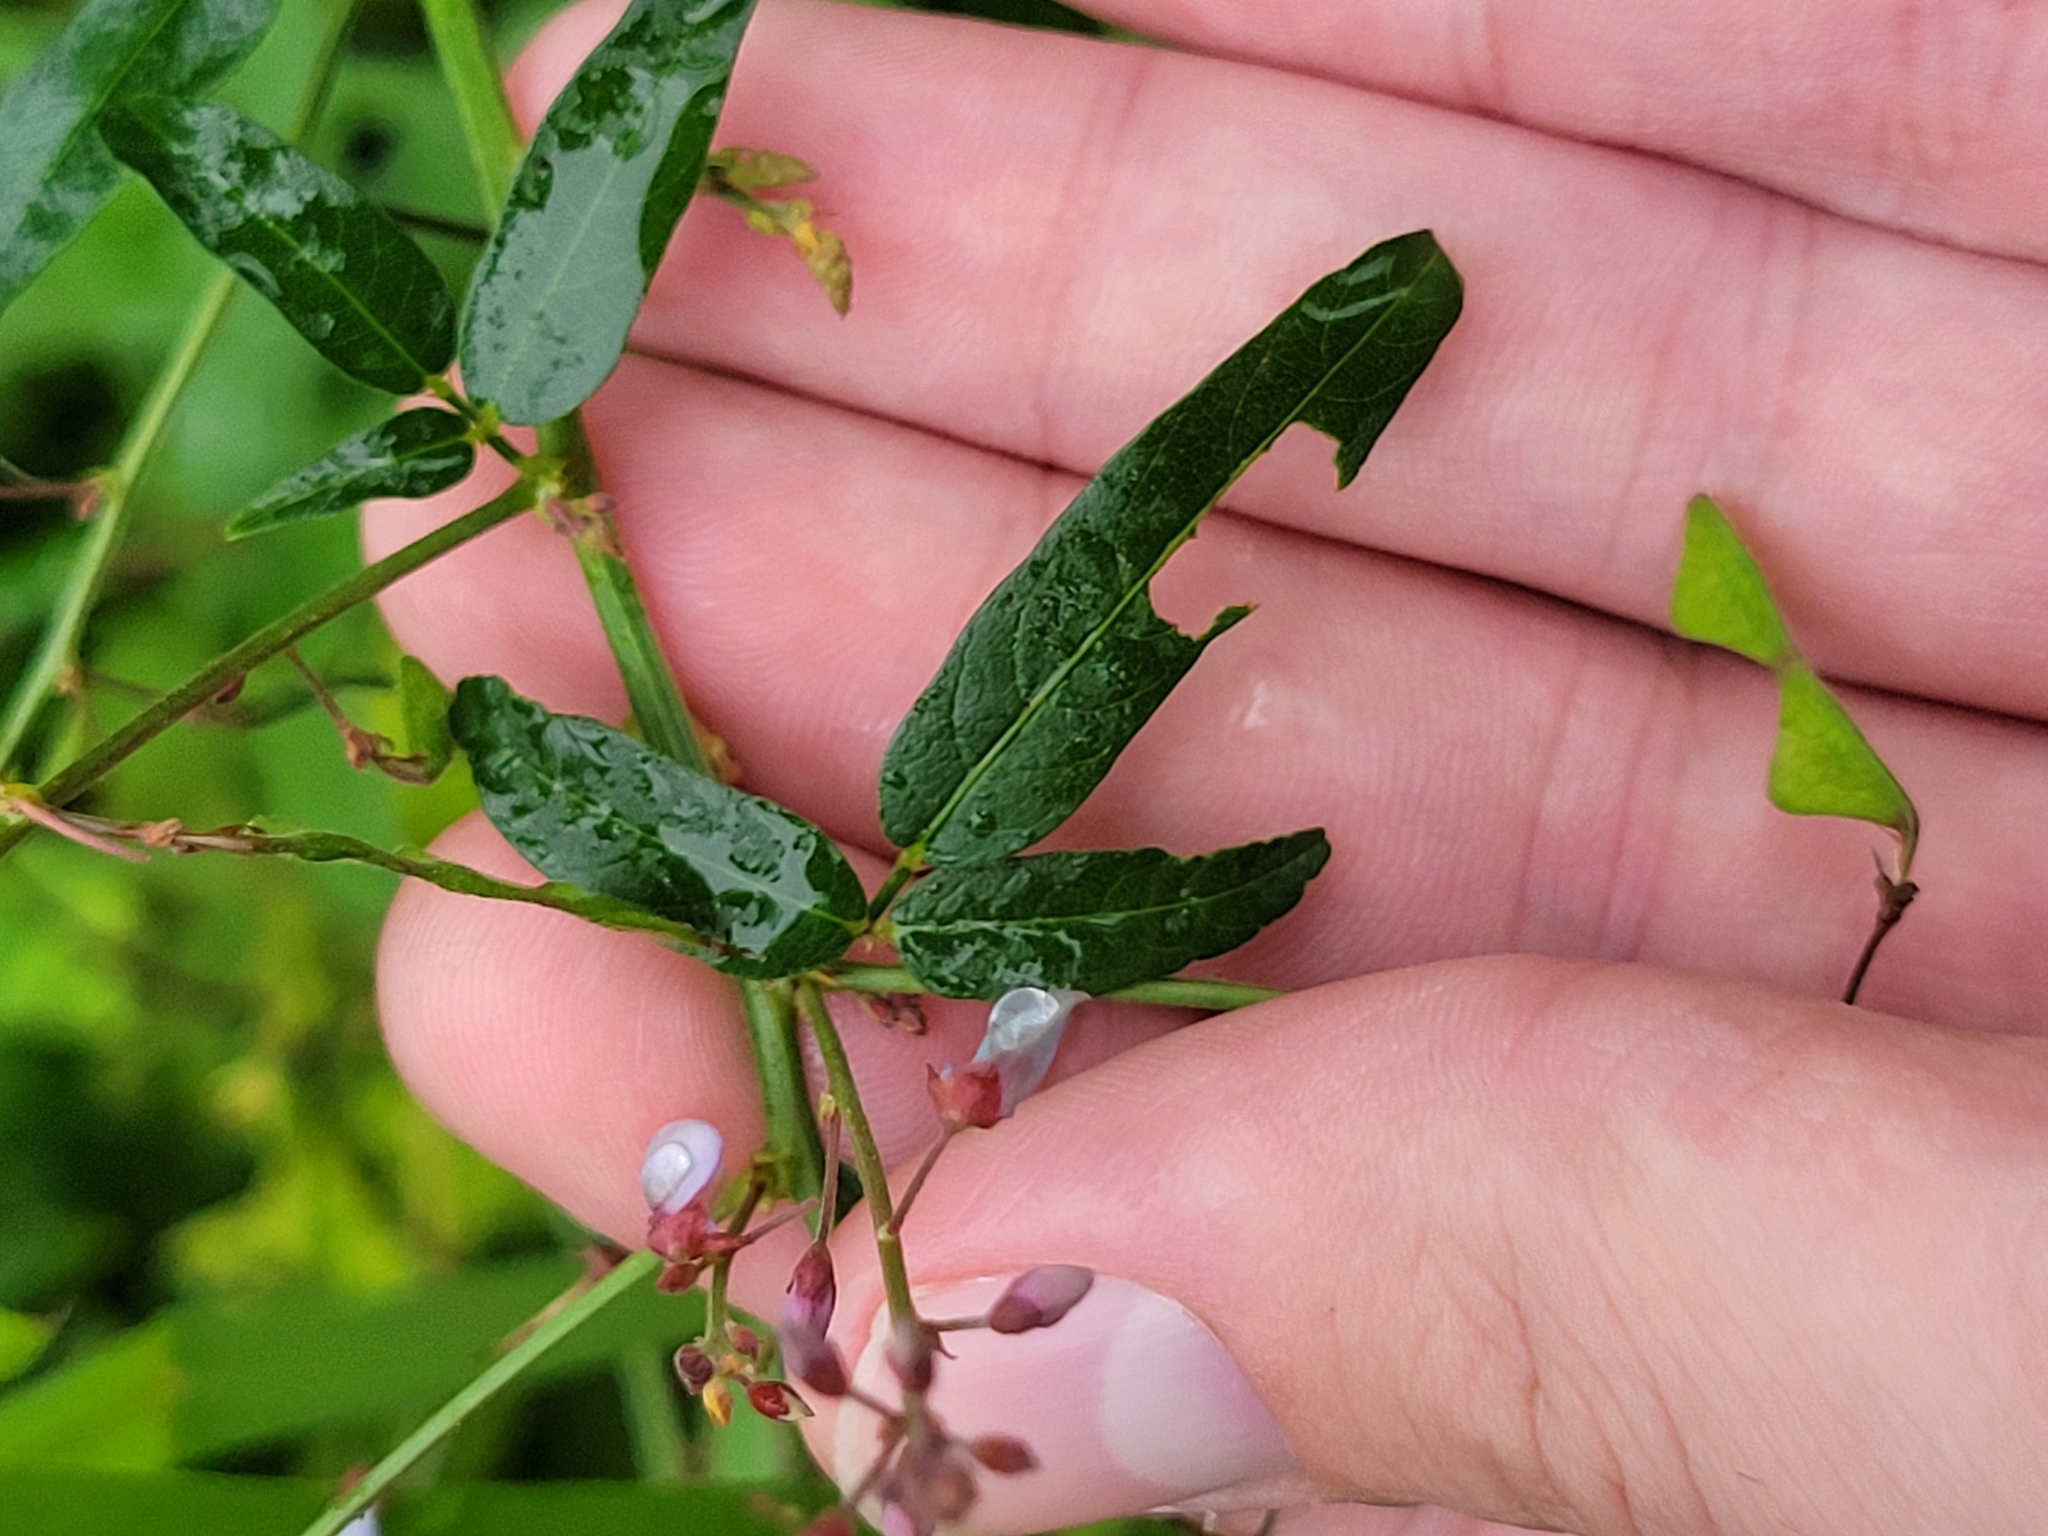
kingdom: Plantae
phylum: Tracheophyta
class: Magnoliopsida
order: Fabales
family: Fabaceae
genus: Desmodium
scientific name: Desmodium paniculatum
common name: Panicled tick-clover
